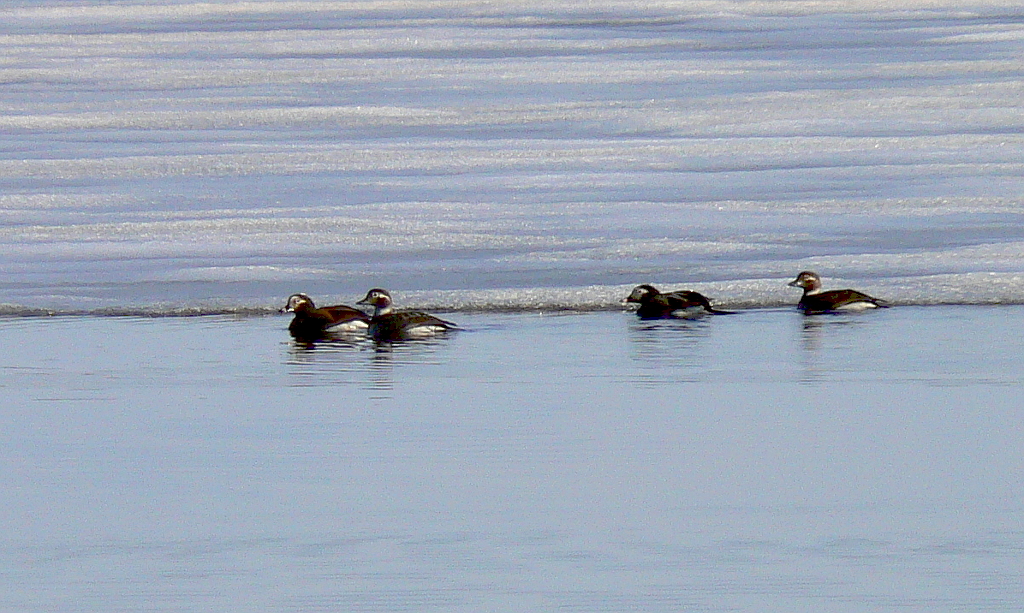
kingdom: Animalia
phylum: Chordata
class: Aves
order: Anseriformes
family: Anatidae
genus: Clangula
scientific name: Clangula hyemalis
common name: Long-tailed duck
